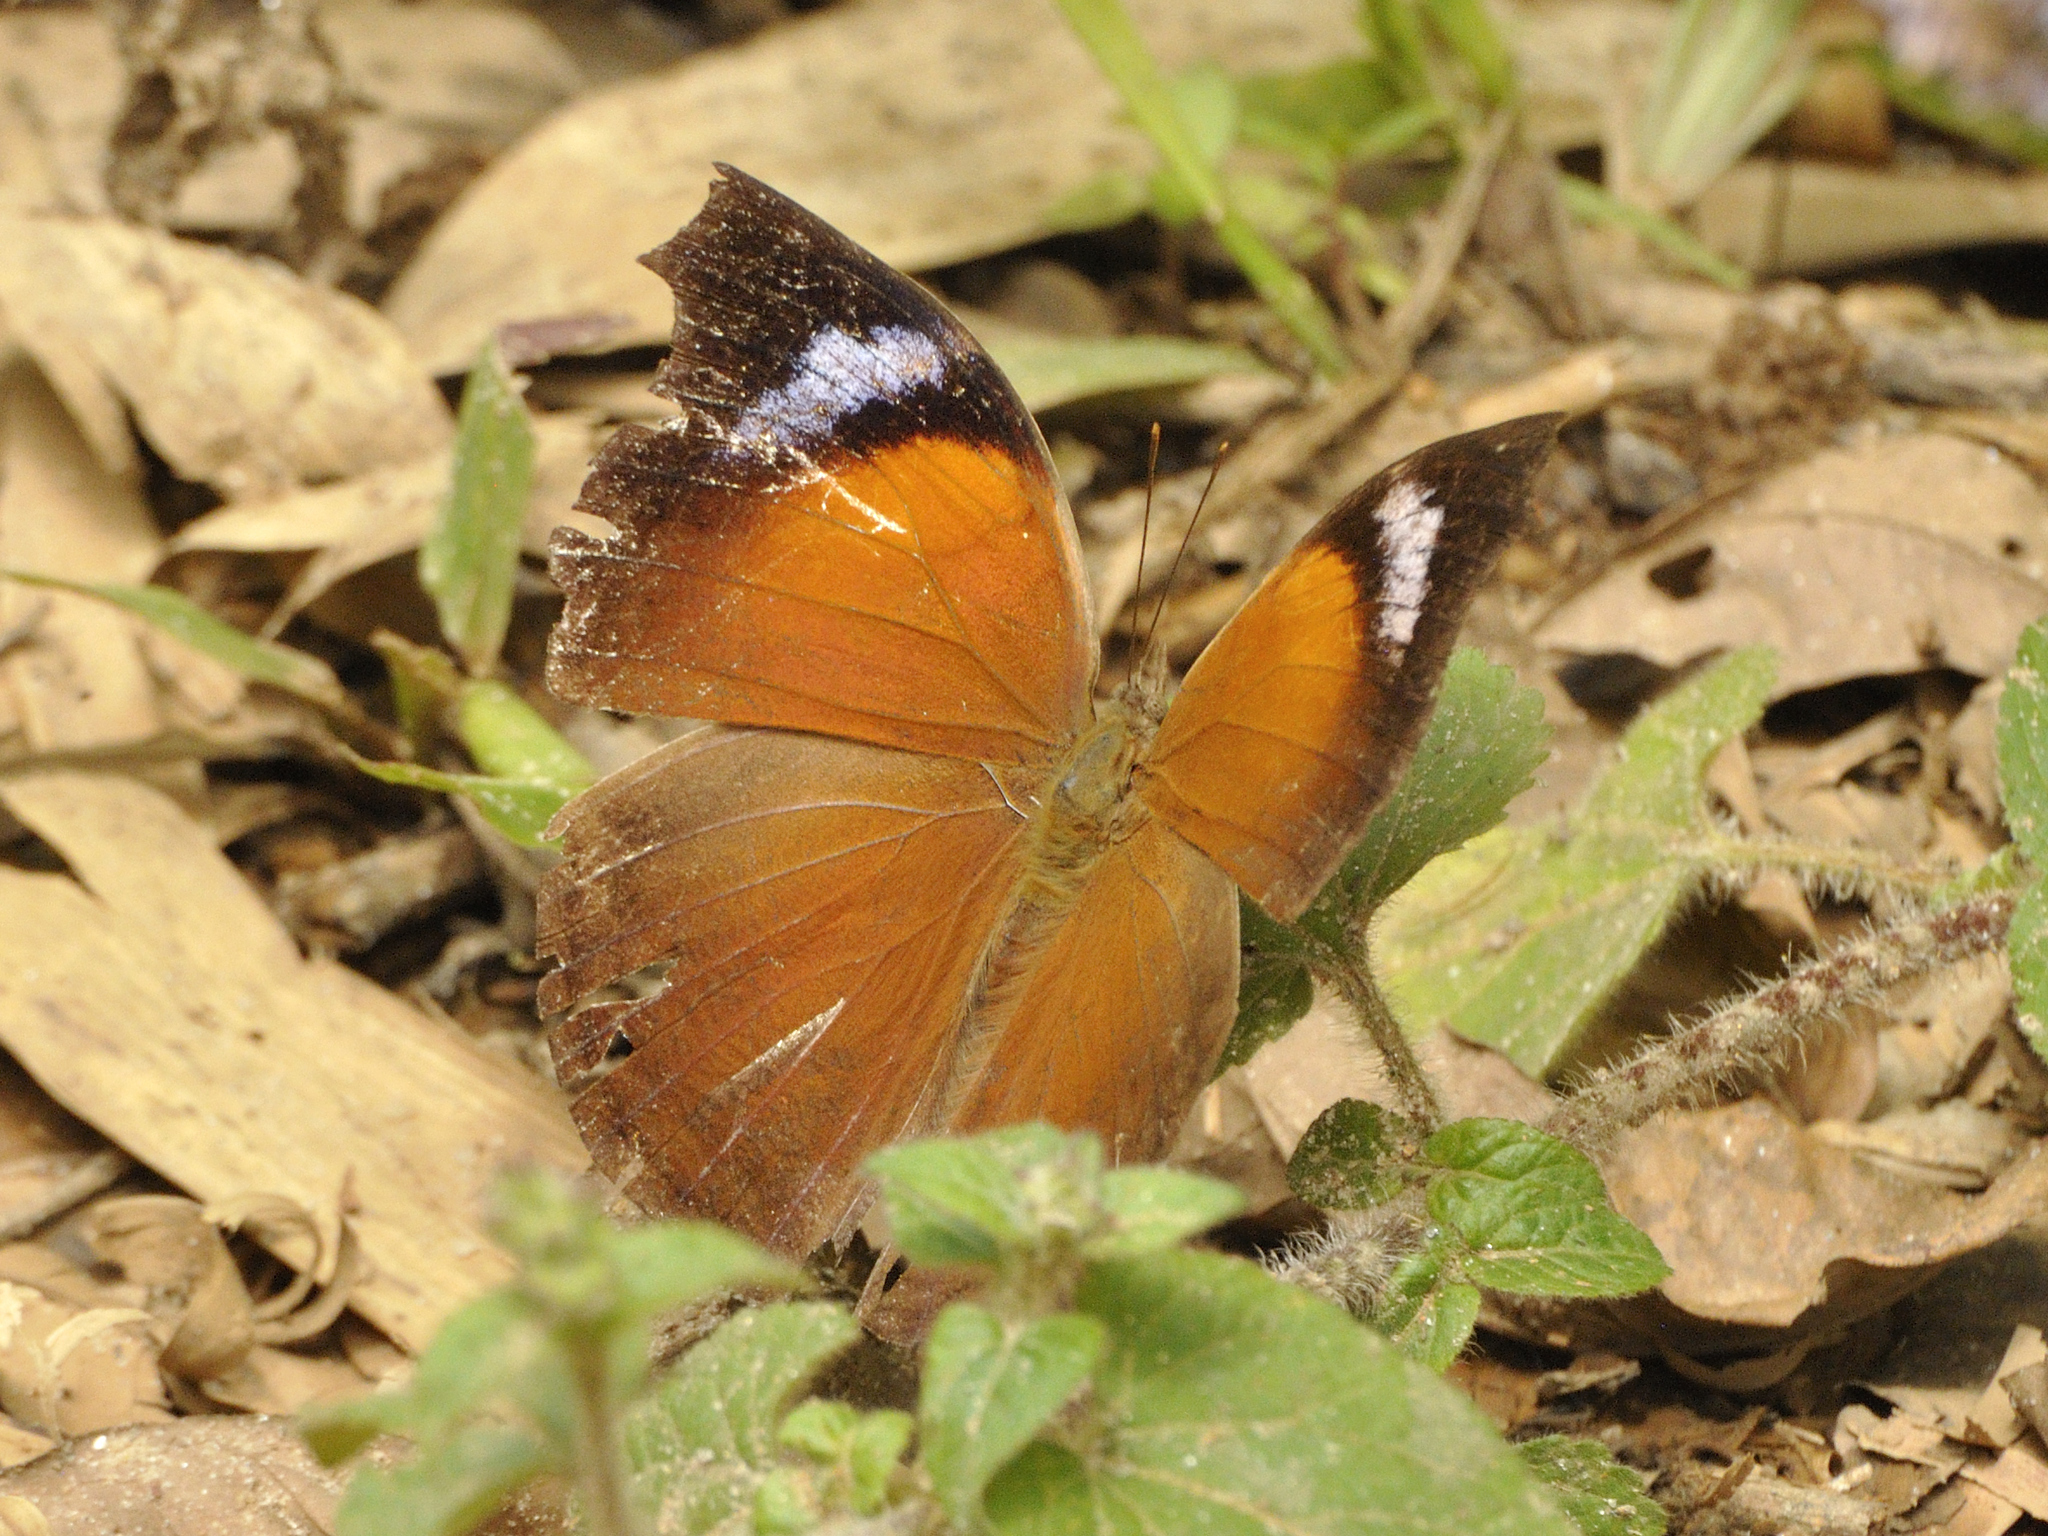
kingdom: Animalia
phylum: Arthropoda
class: Insecta
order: Lepidoptera
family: Nymphalidae
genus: Salamis
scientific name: Salamis anteva
